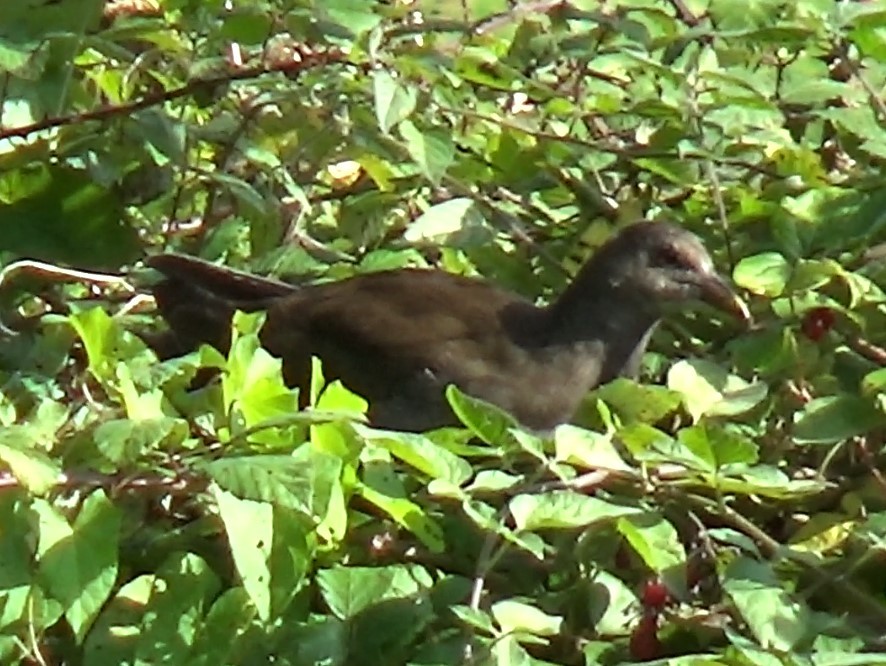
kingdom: Animalia
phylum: Chordata
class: Aves
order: Gruiformes
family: Rallidae
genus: Gallinula
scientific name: Gallinula chloropus
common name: Common moorhen
